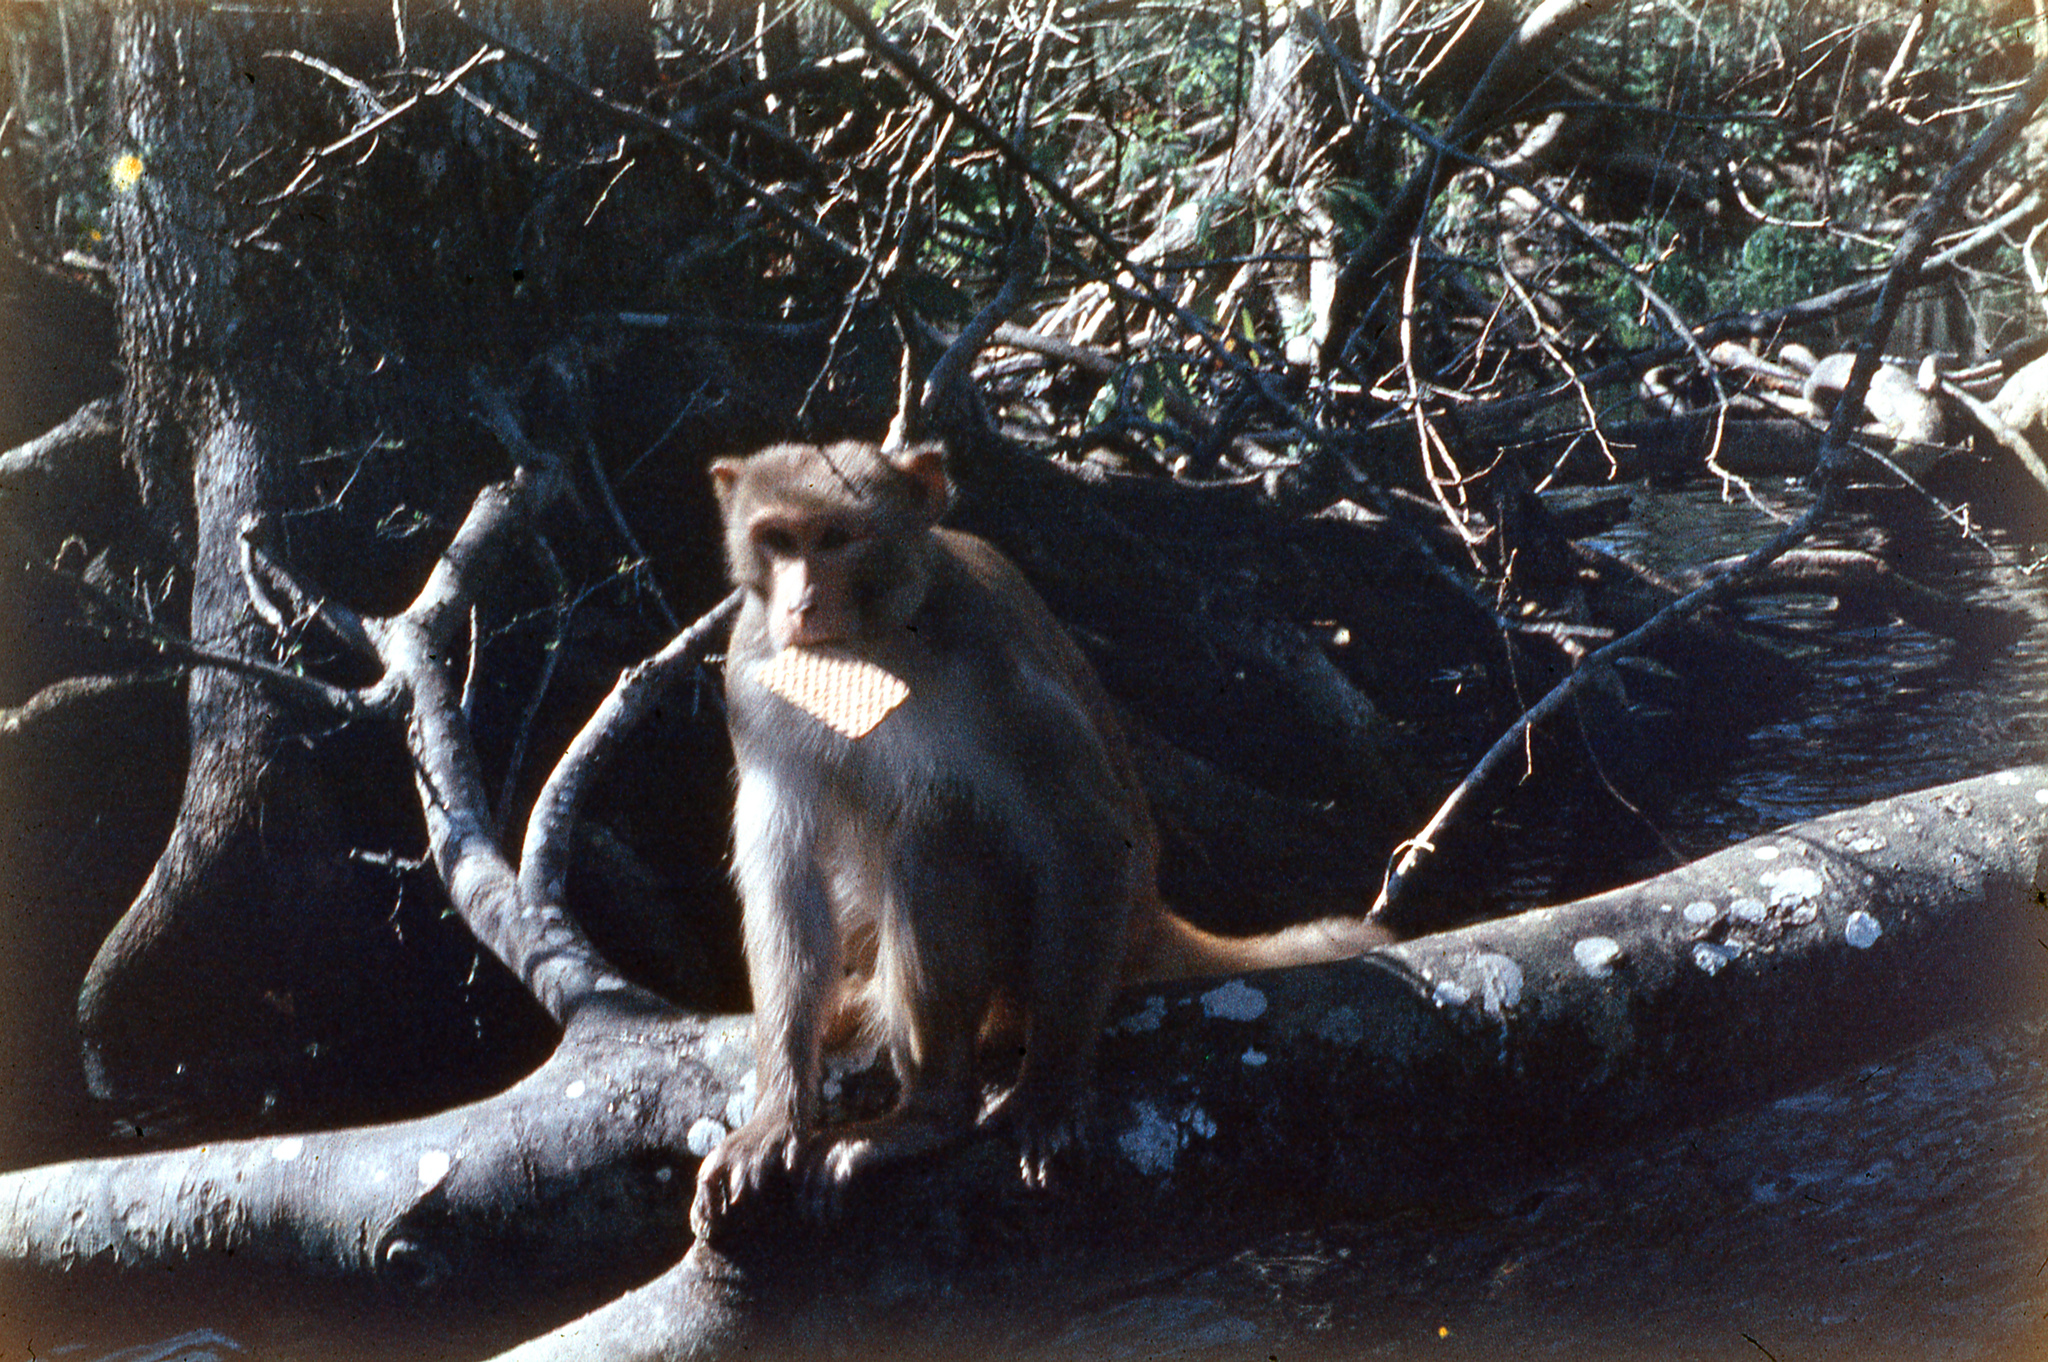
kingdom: Animalia
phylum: Chordata
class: Mammalia
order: Primates
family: Cercopithecidae
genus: Macaca
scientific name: Macaca mulatta
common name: Rhesus monkey
